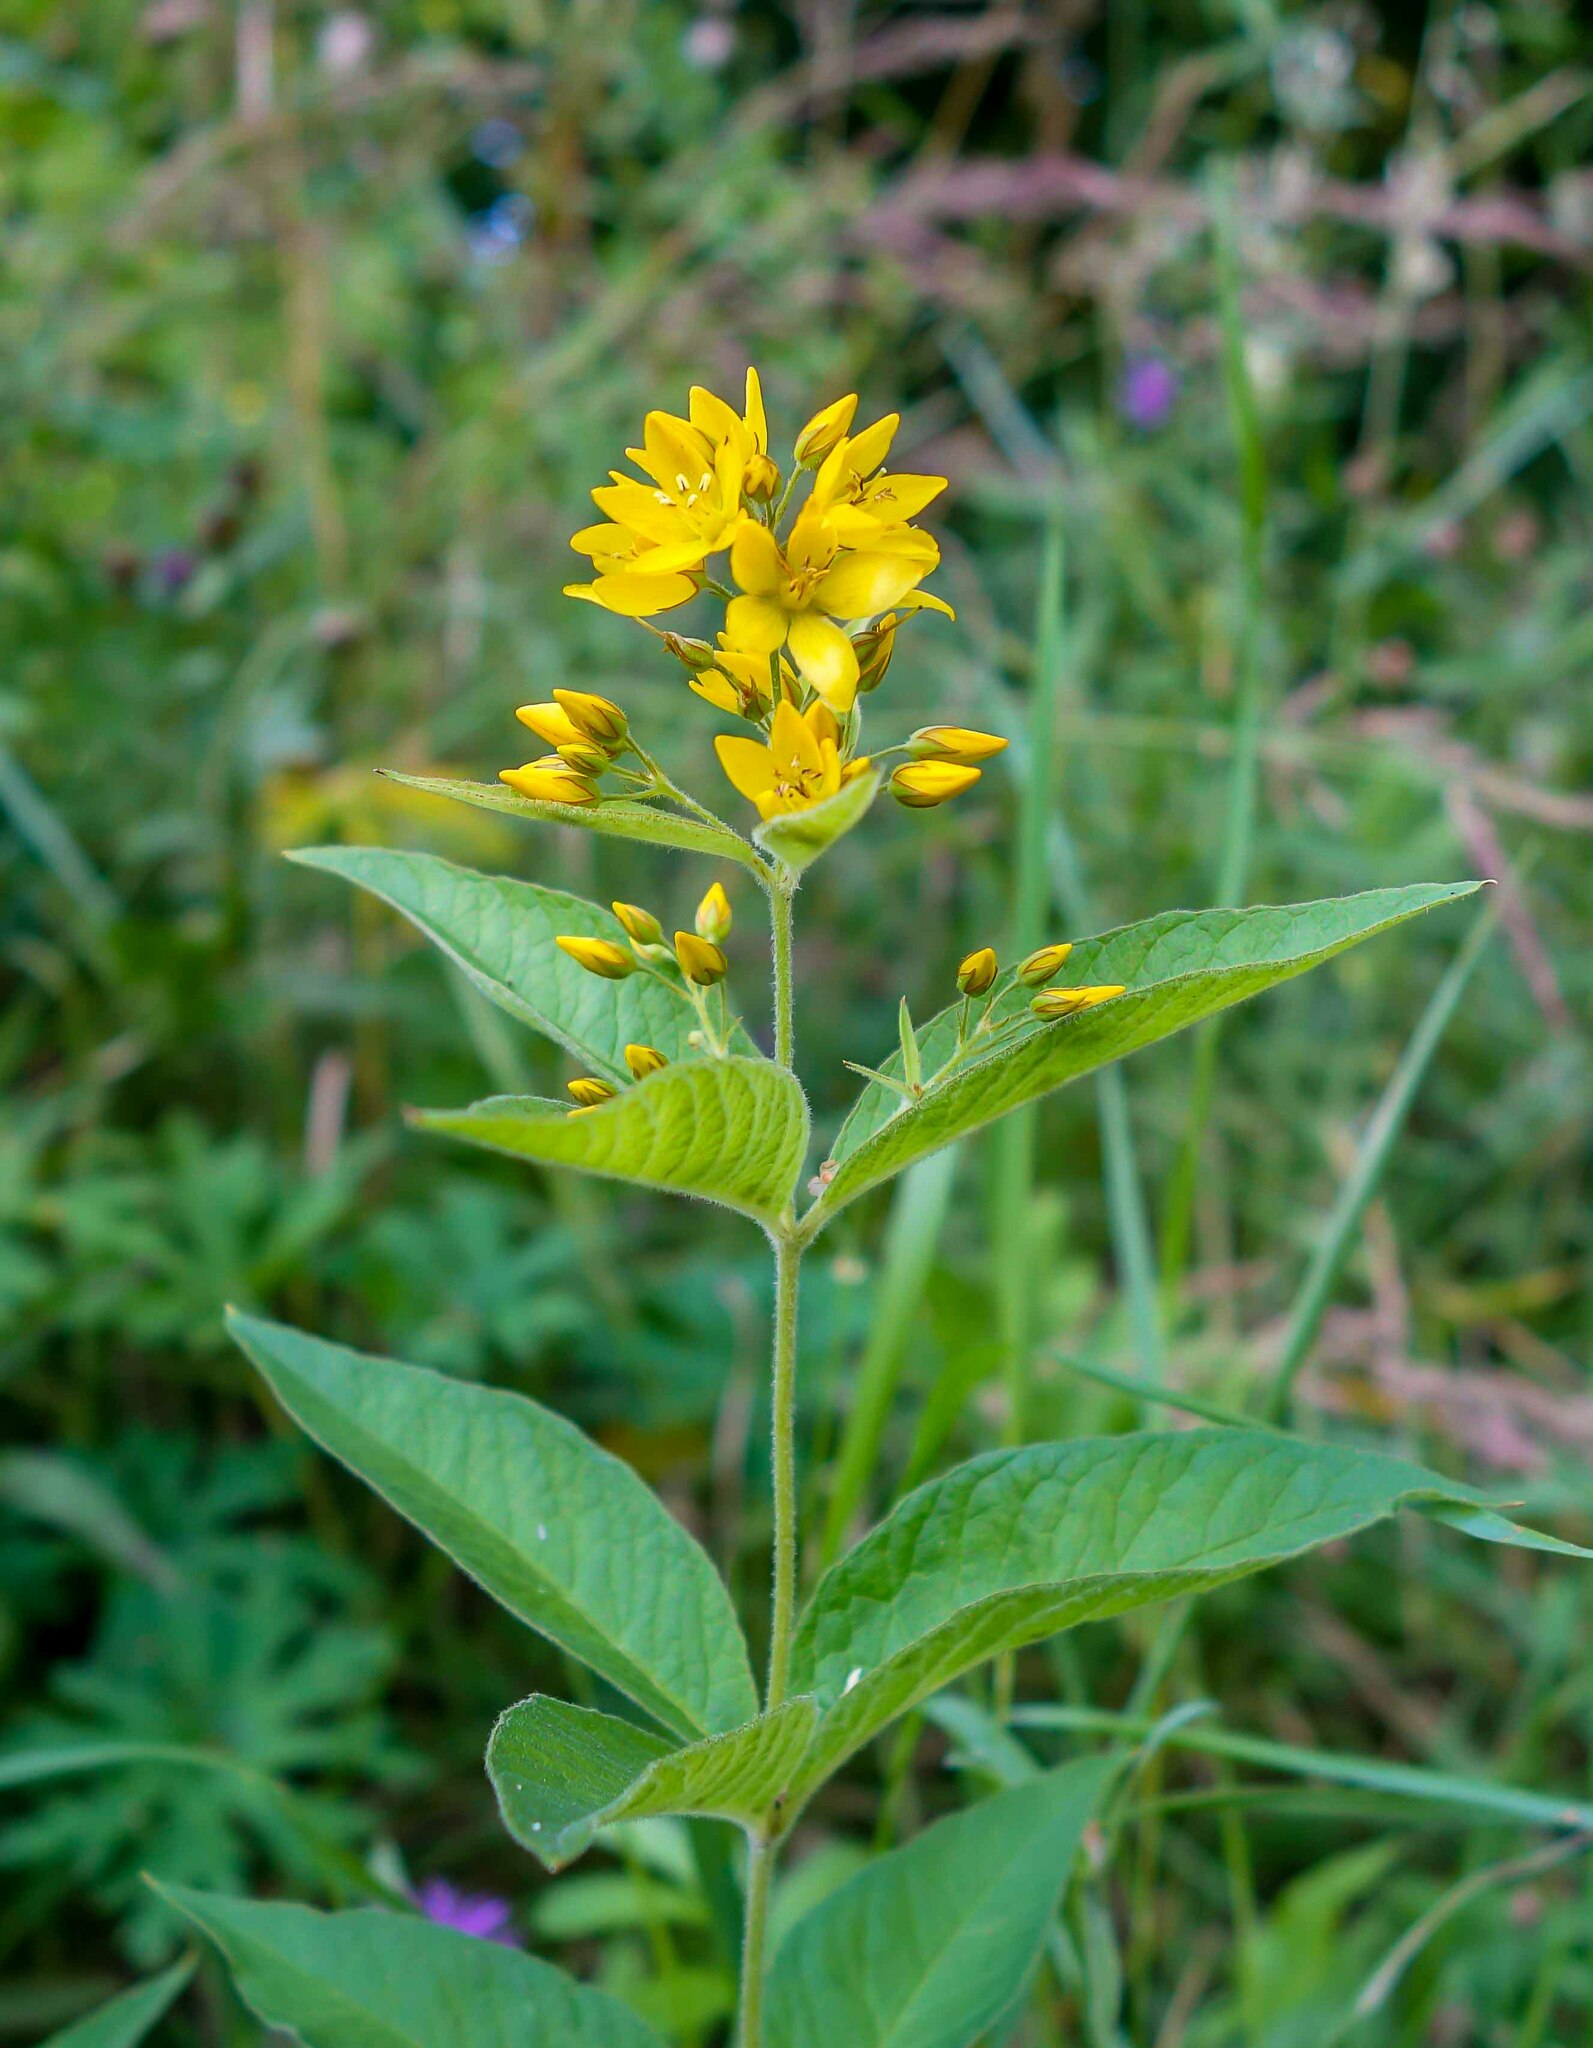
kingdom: Plantae
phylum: Tracheophyta
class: Magnoliopsida
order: Ericales
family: Primulaceae
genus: Lysimachia
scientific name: Lysimachia vulgaris
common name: Yellow loosestrife
